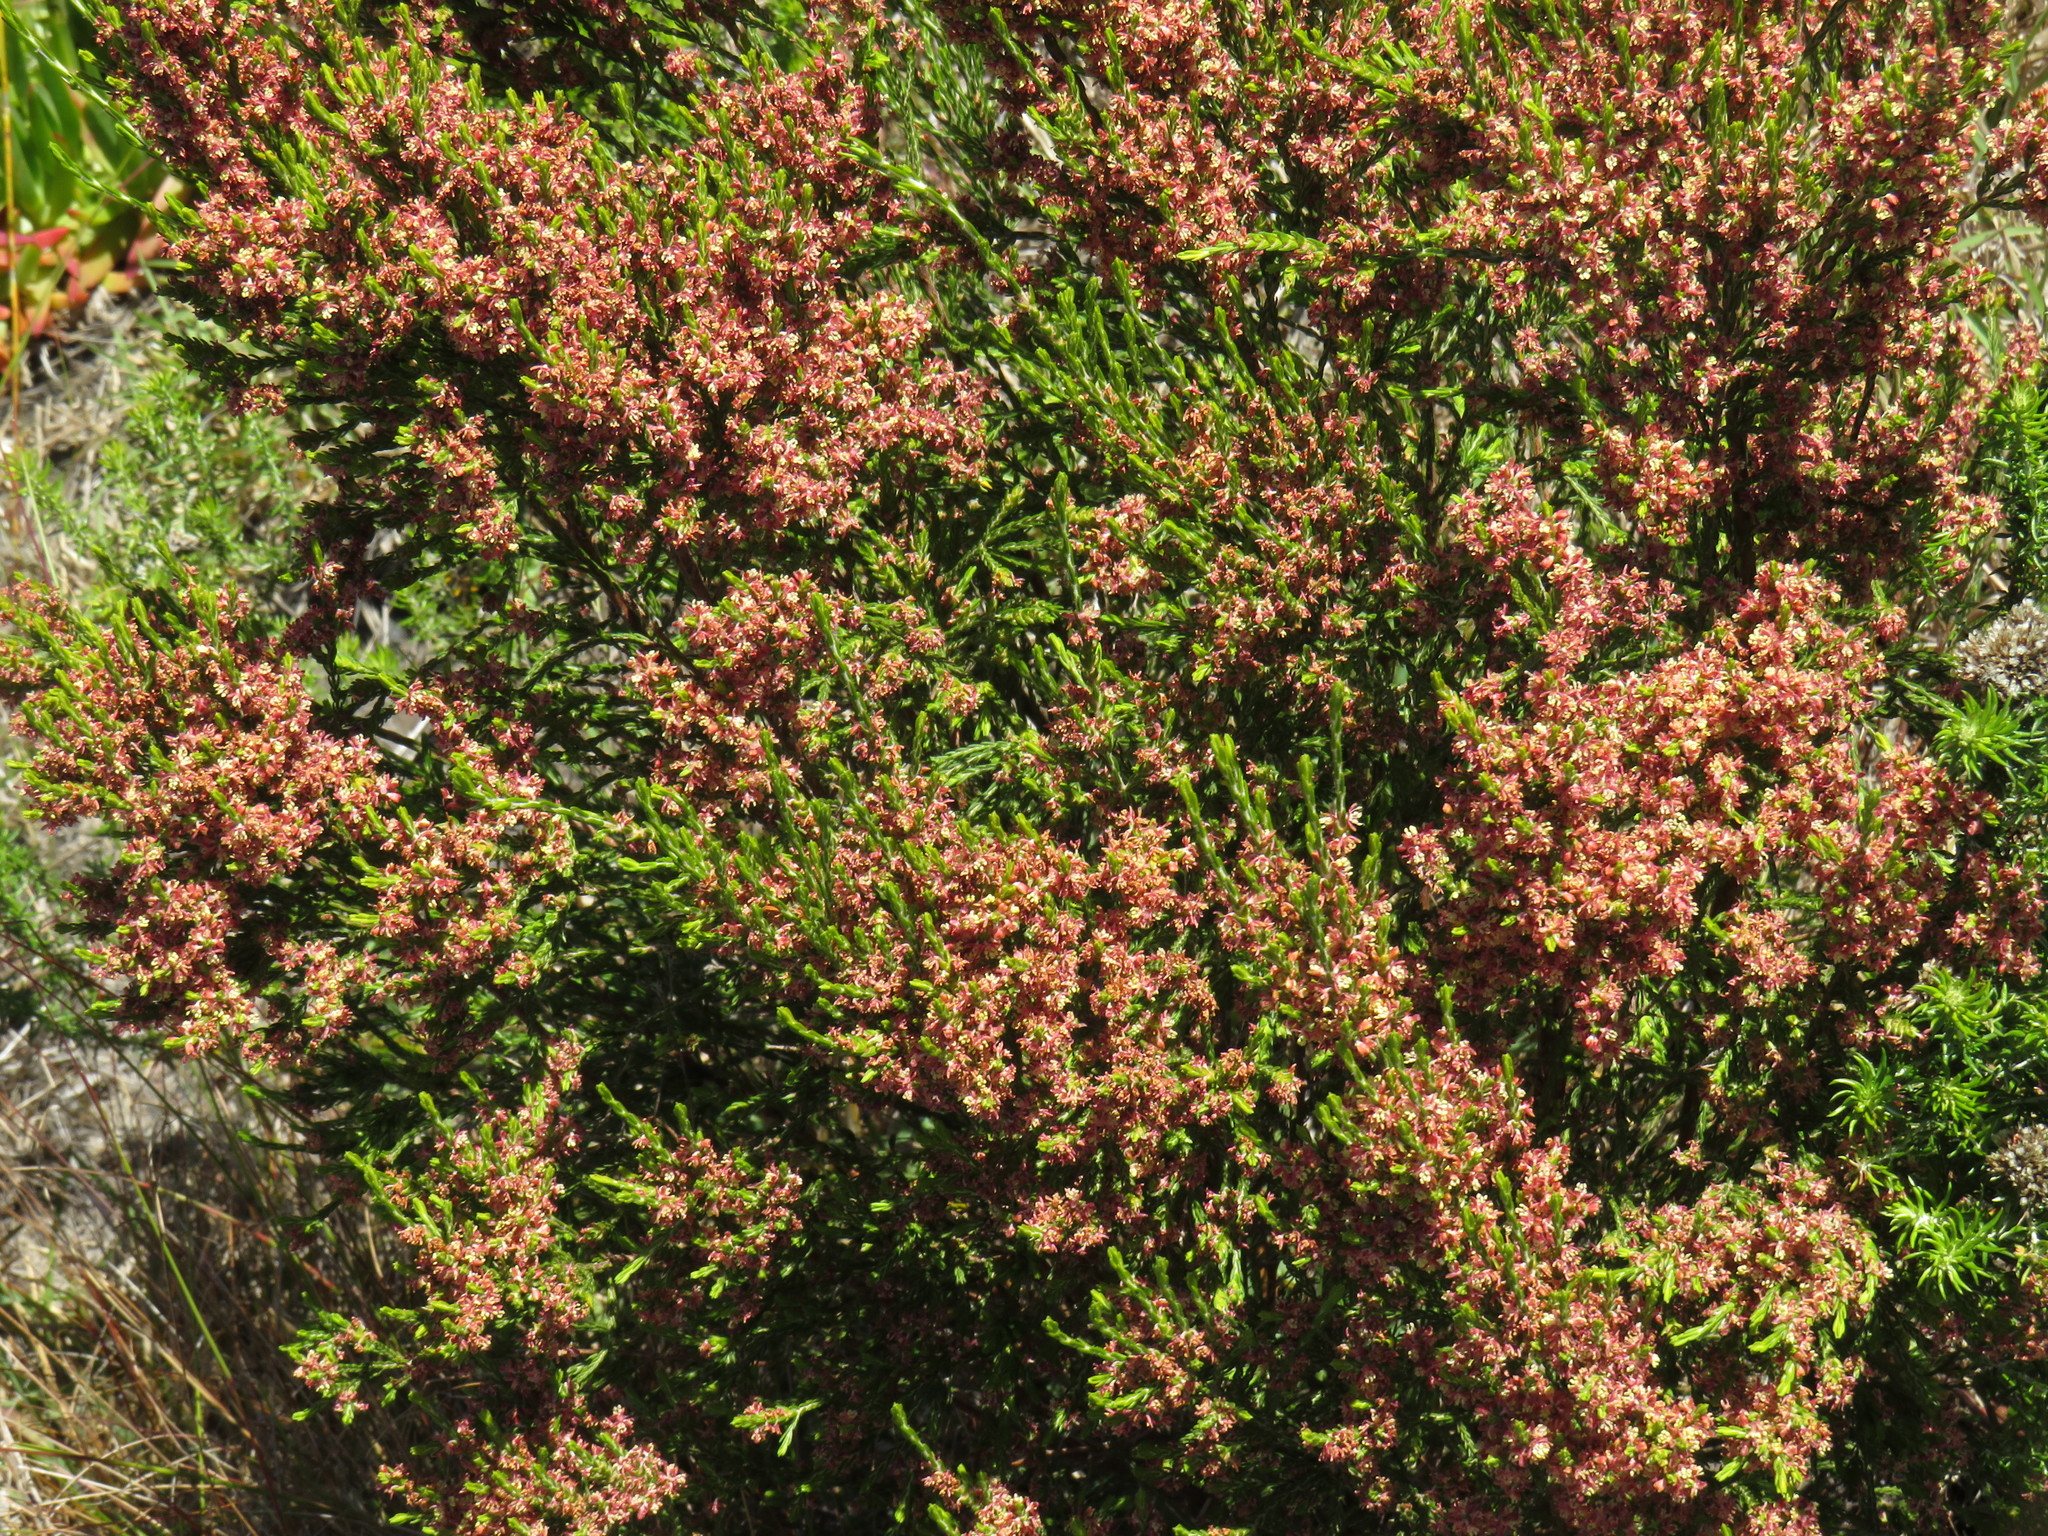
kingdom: Plantae
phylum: Tracheophyta
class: Magnoliopsida
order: Malvales
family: Thymelaeaceae
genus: Passerina
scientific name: Passerina corymbosa
